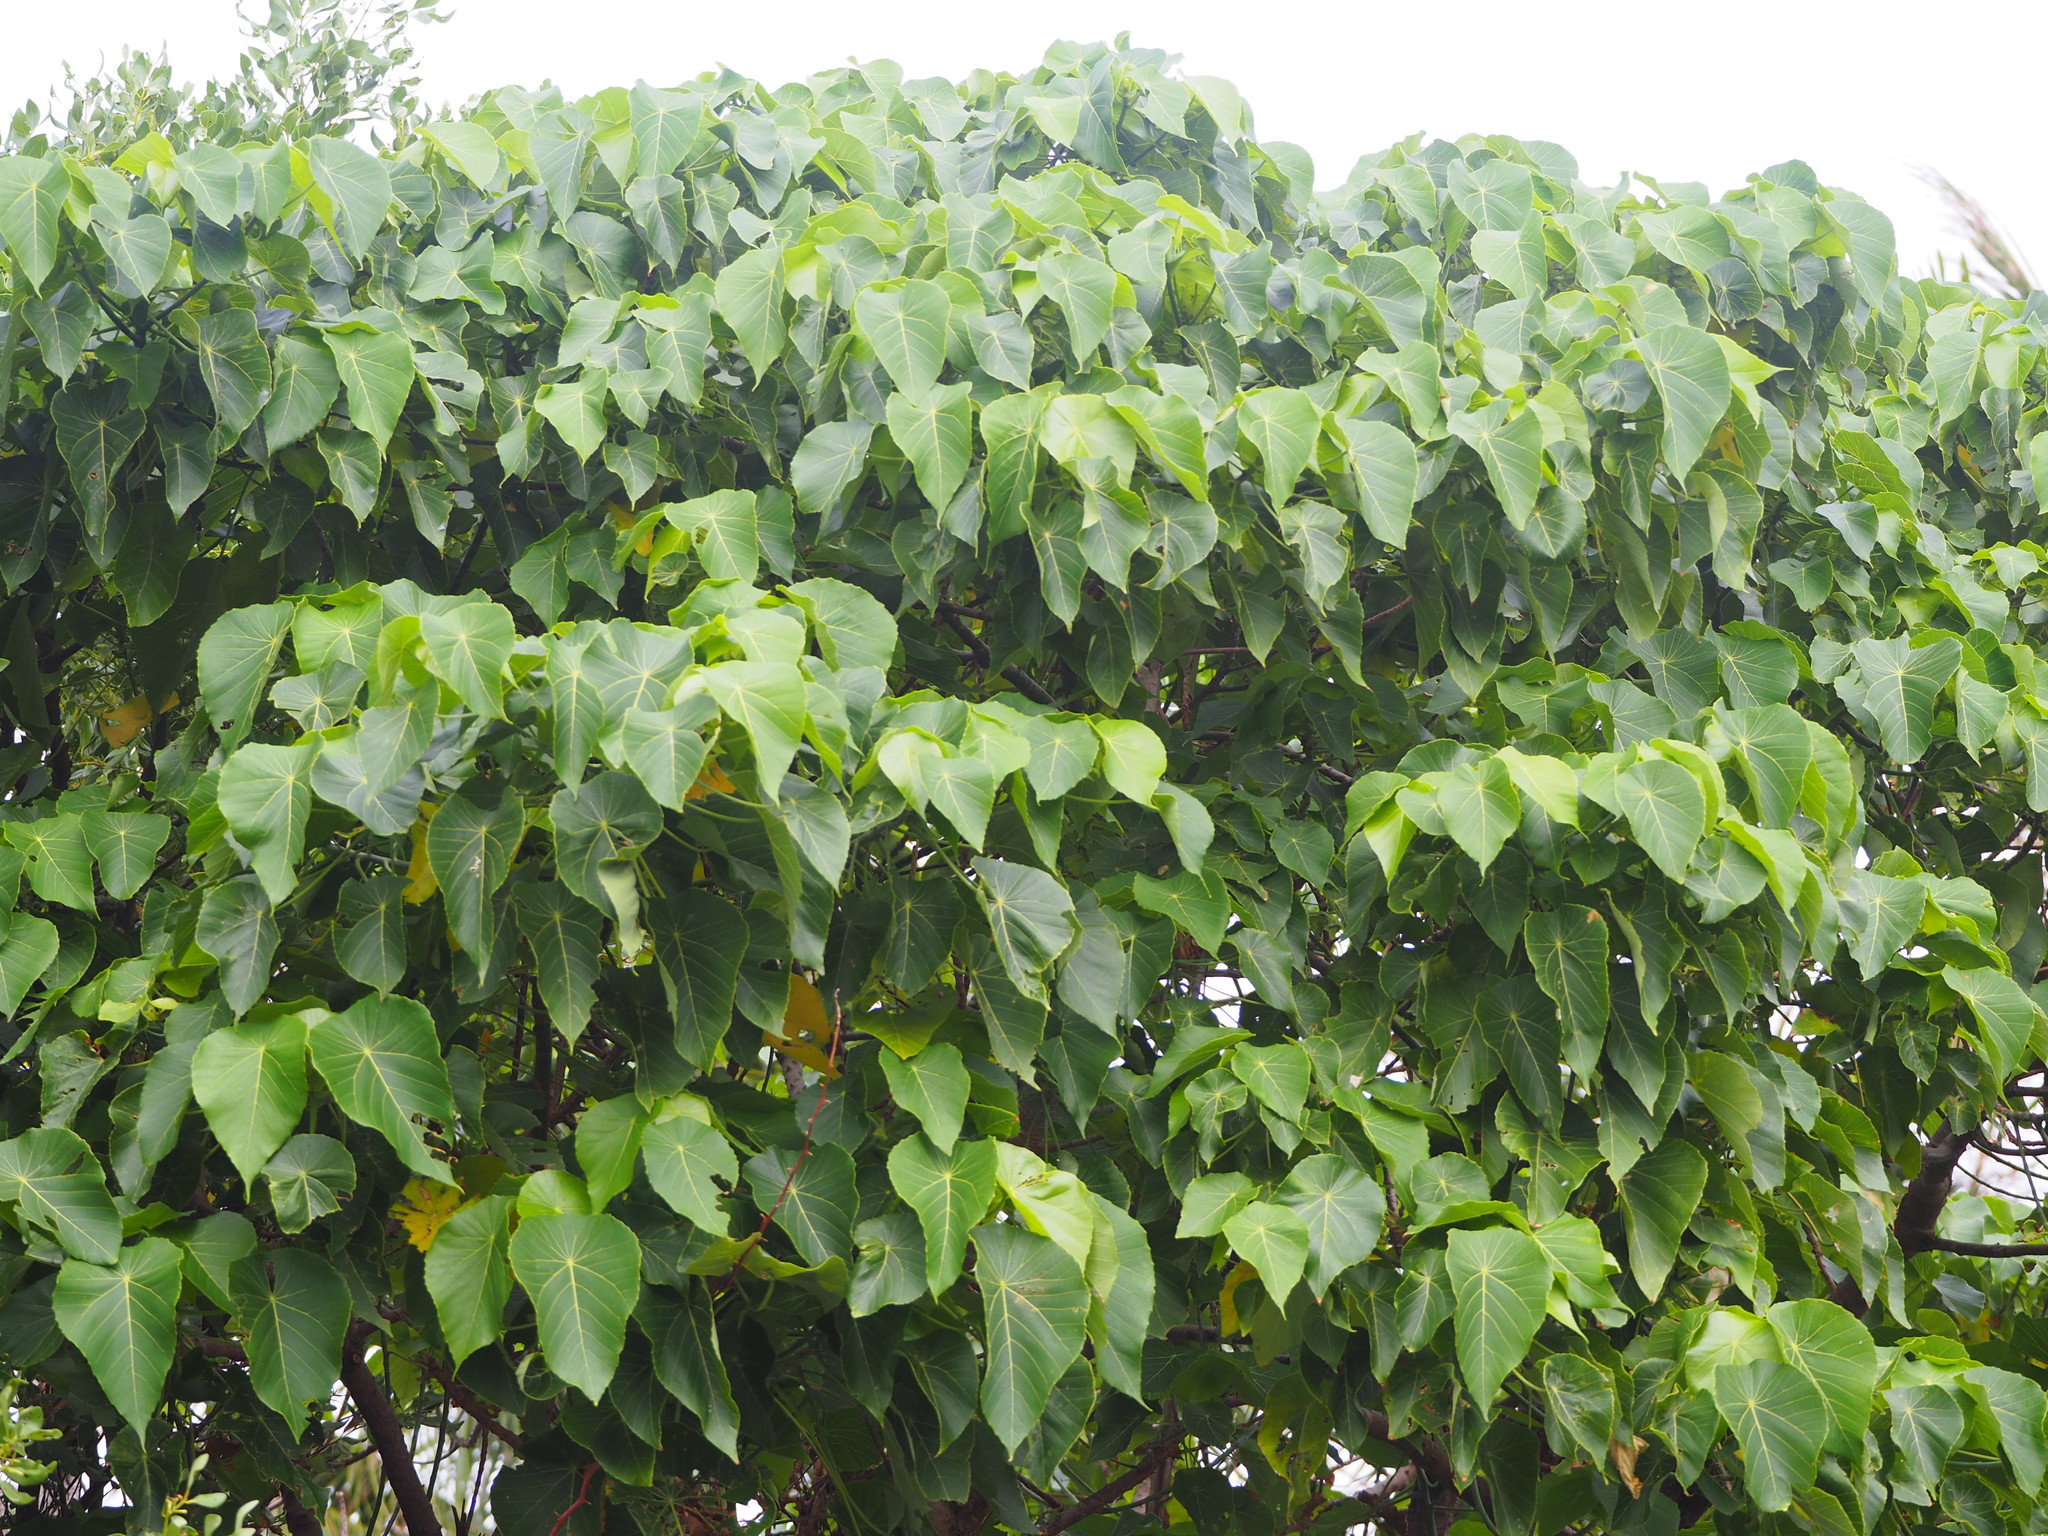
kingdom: Plantae
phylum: Tracheophyta
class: Magnoliopsida
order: Malpighiales
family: Euphorbiaceae
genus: Macaranga
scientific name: Macaranga tanarius
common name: Parasol leaf tree
